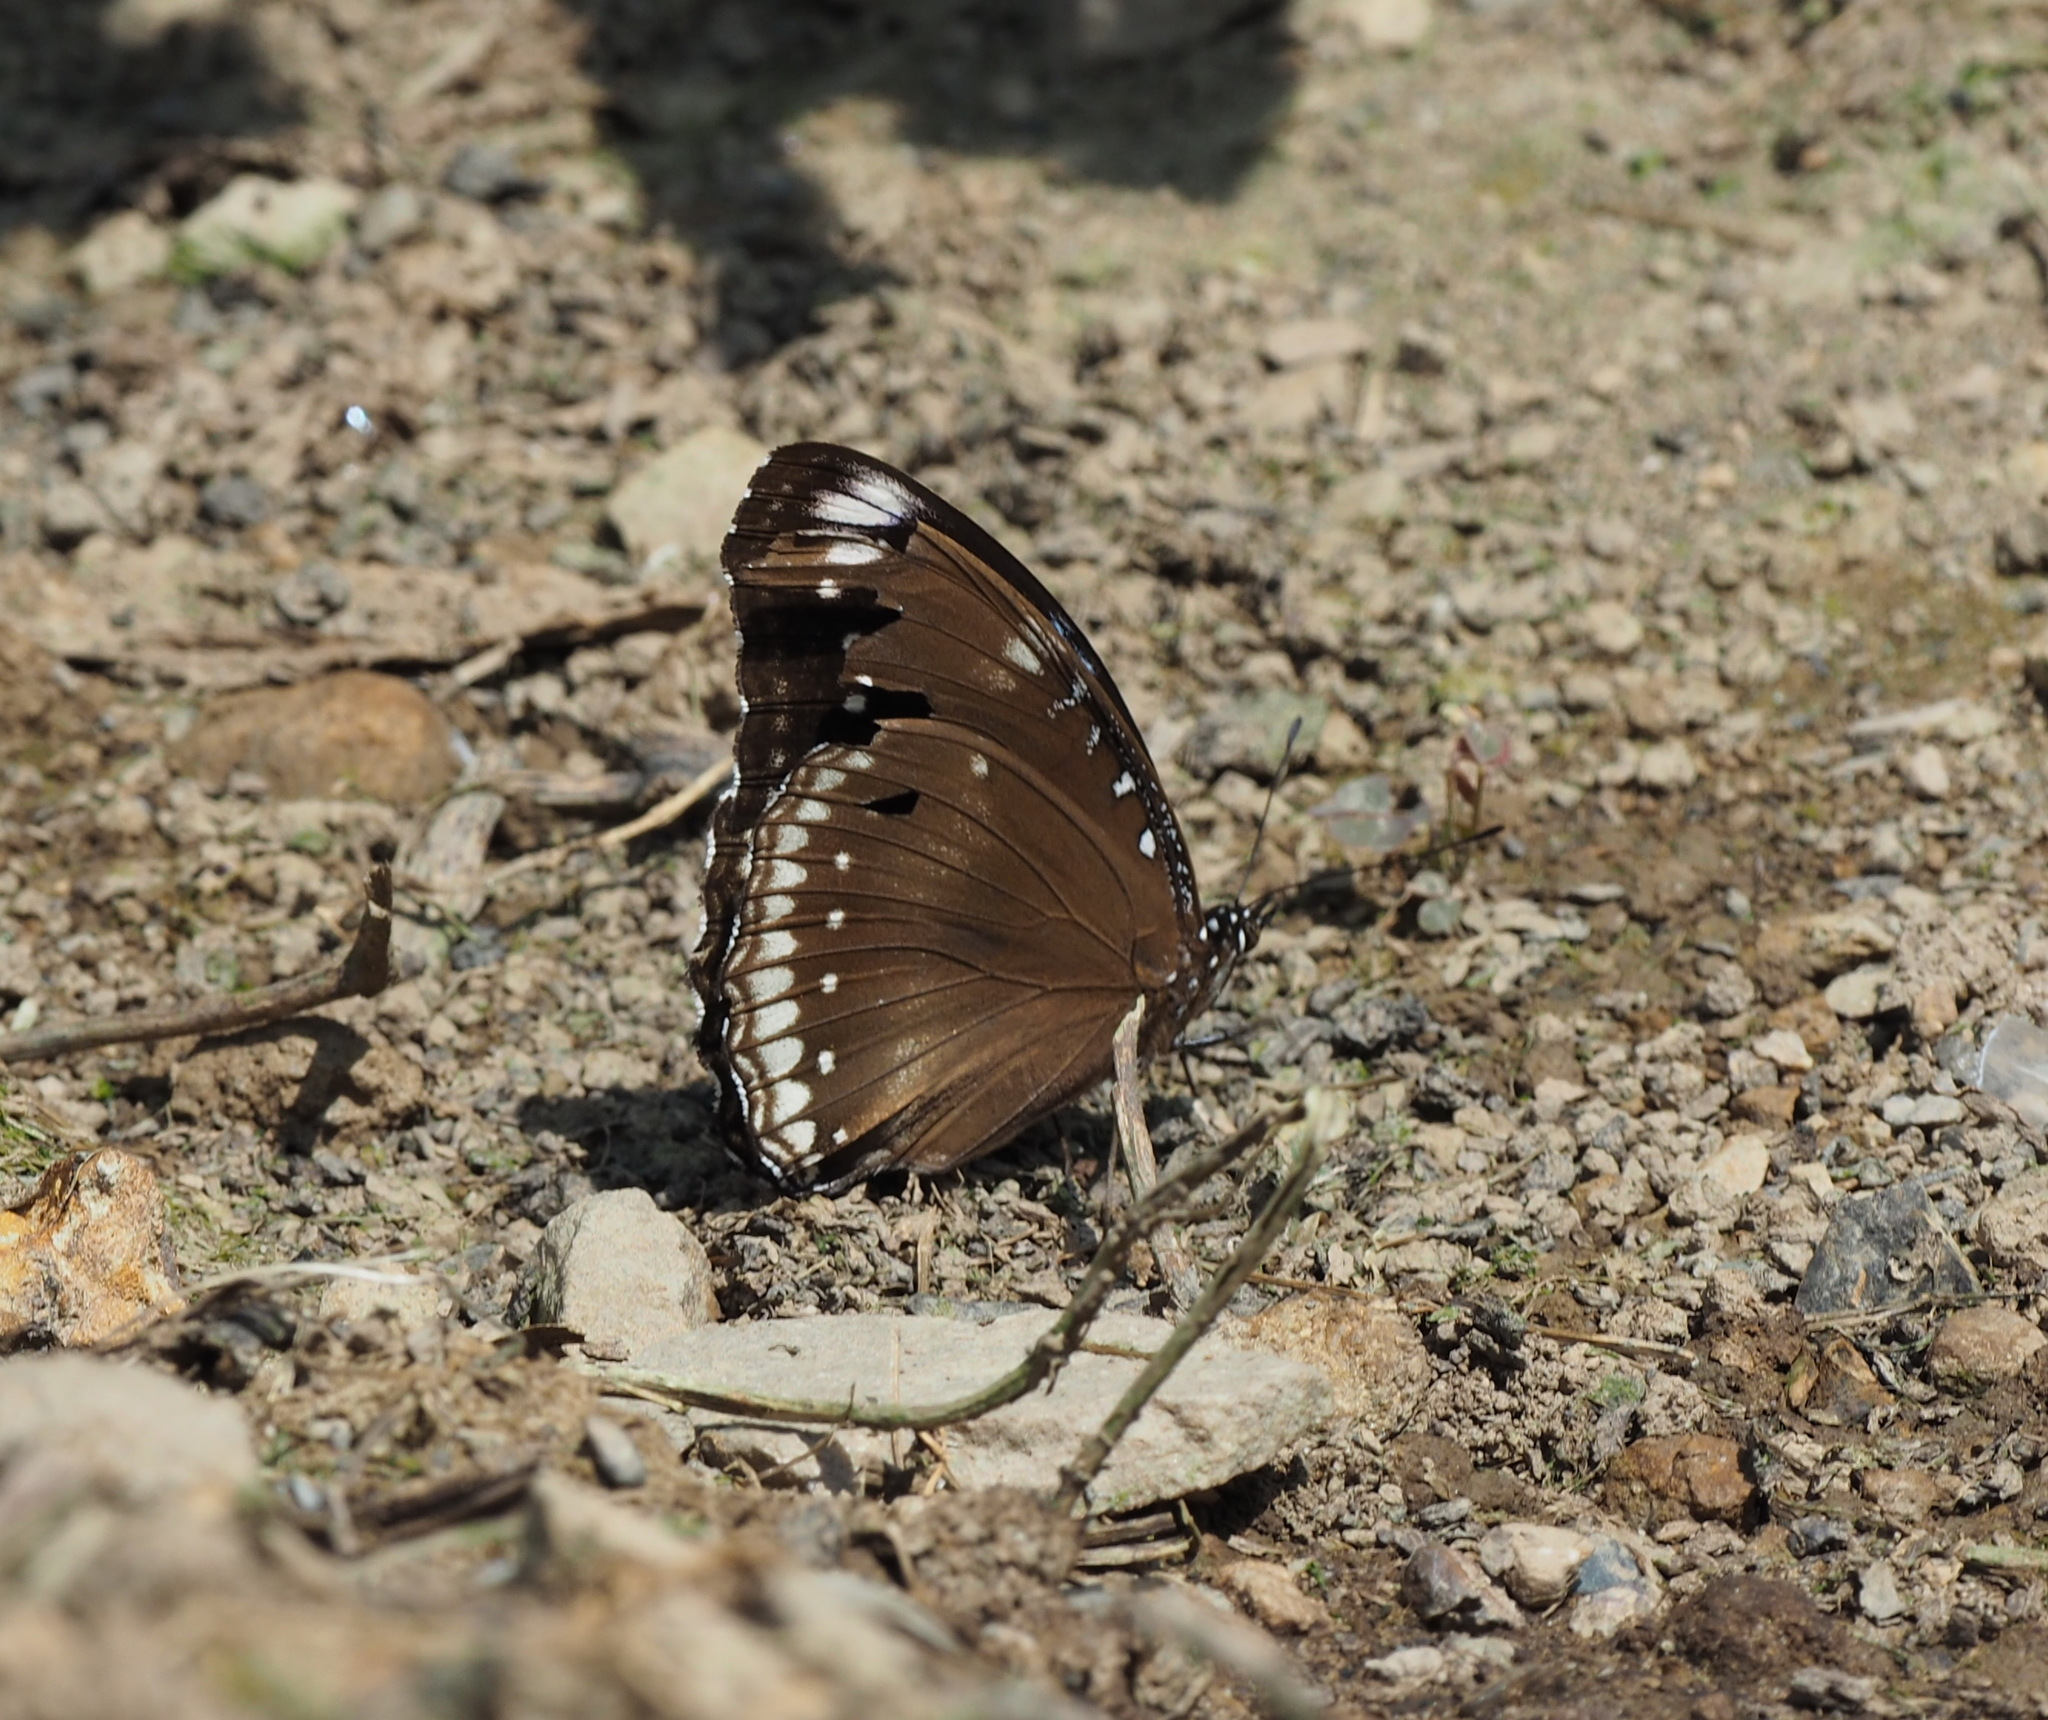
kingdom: Animalia
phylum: Arthropoda
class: Insecta
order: Lepidoptera
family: Nymphalidae
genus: Hypolimnas
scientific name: Hypolimnas bolina
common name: Great eggfly
